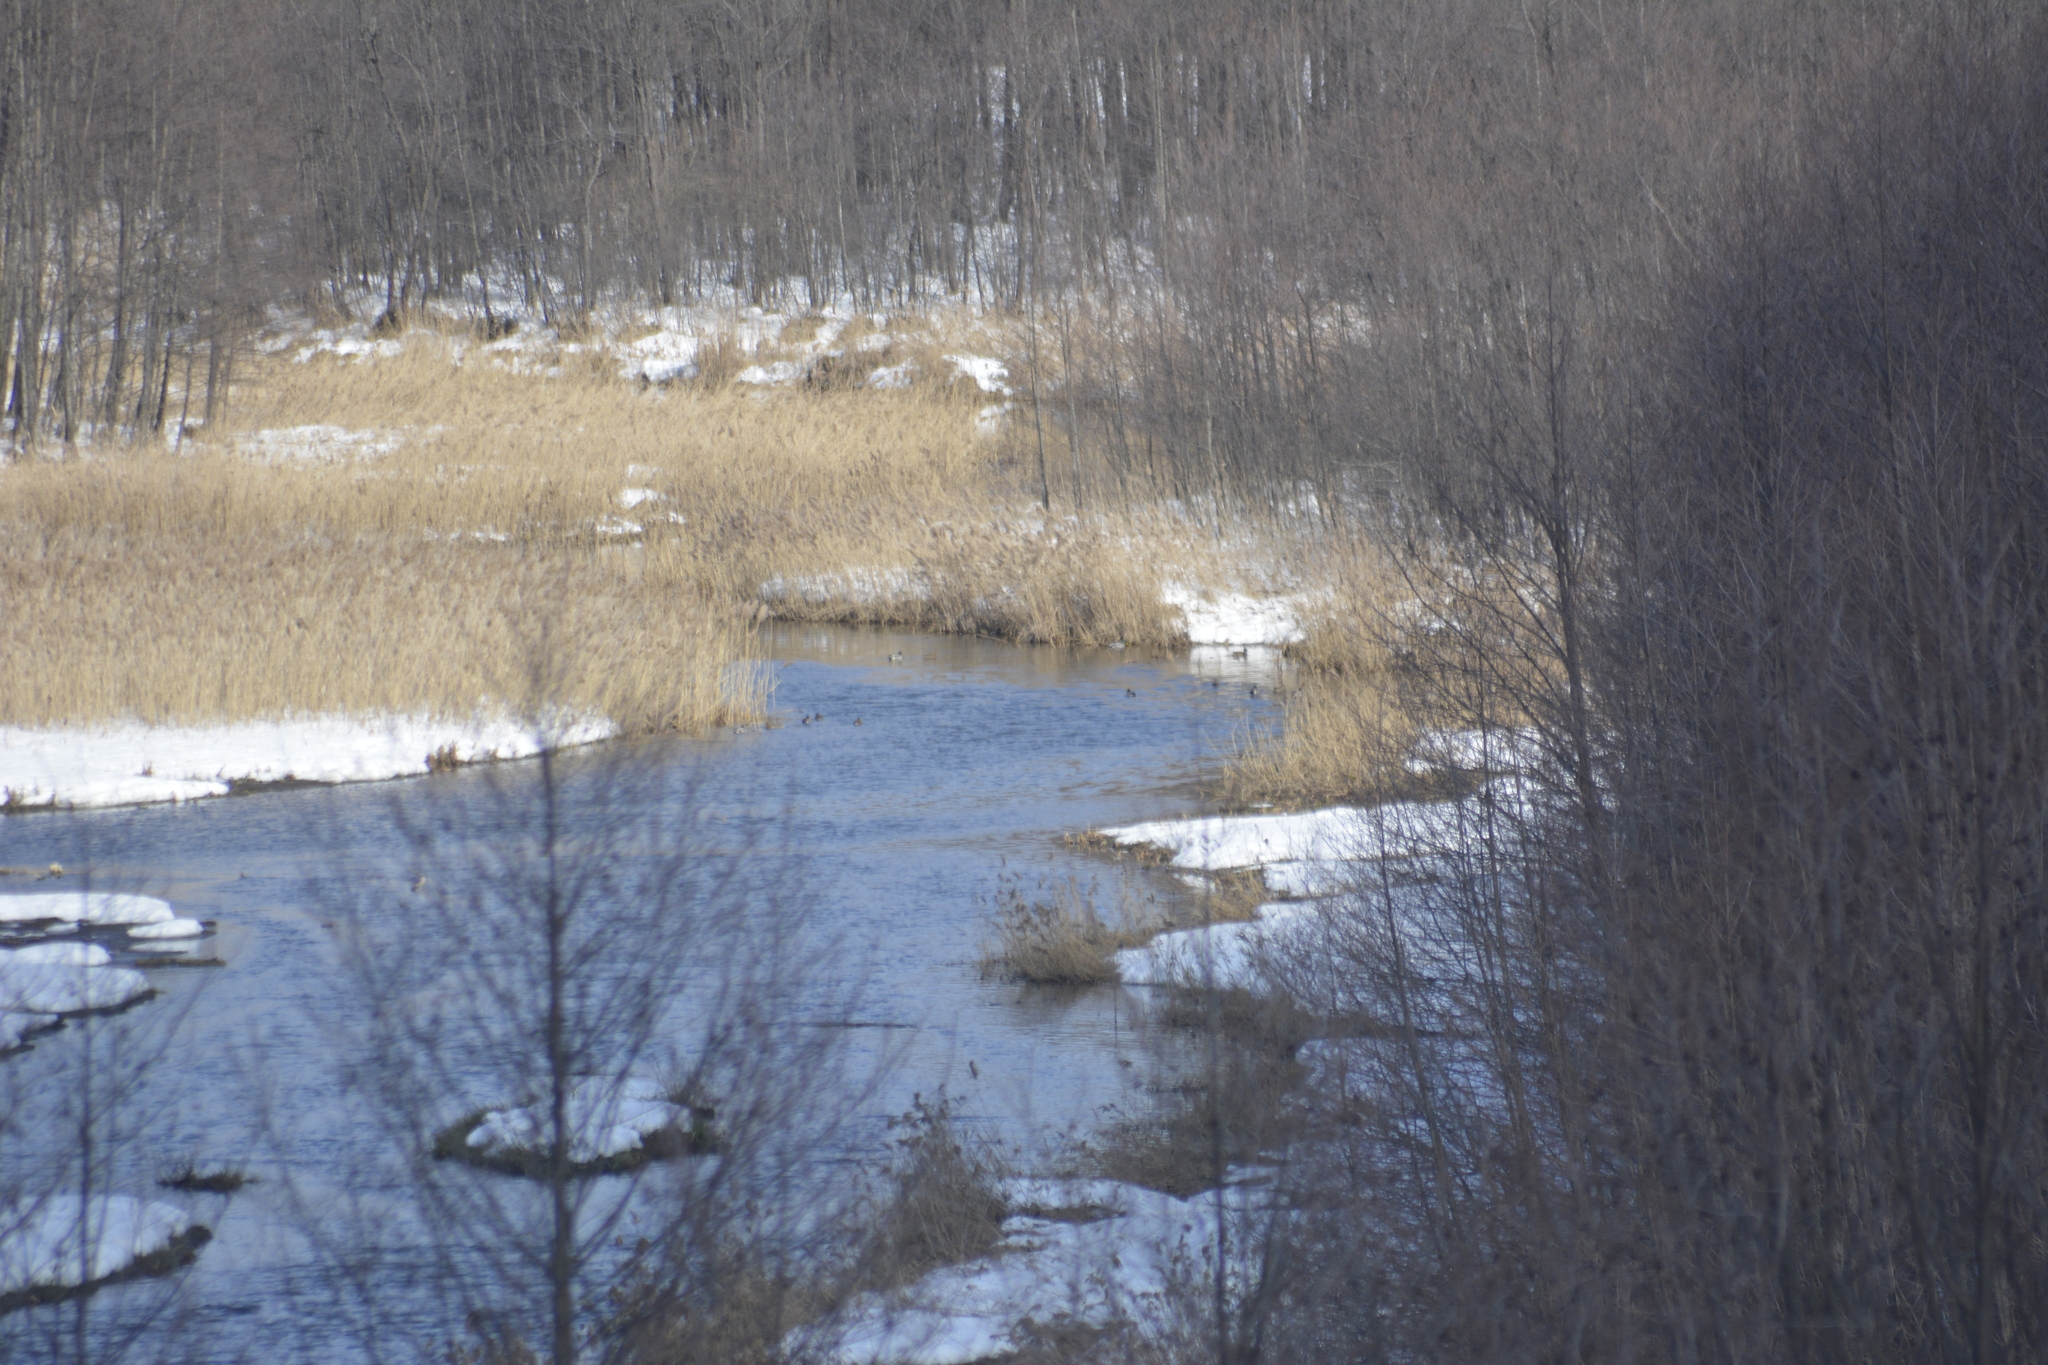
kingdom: Animalia
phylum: Chordata
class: Aves
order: Anseriformes
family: Anatidae
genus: Anas
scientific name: Anas platyrhynchos
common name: Mallard
